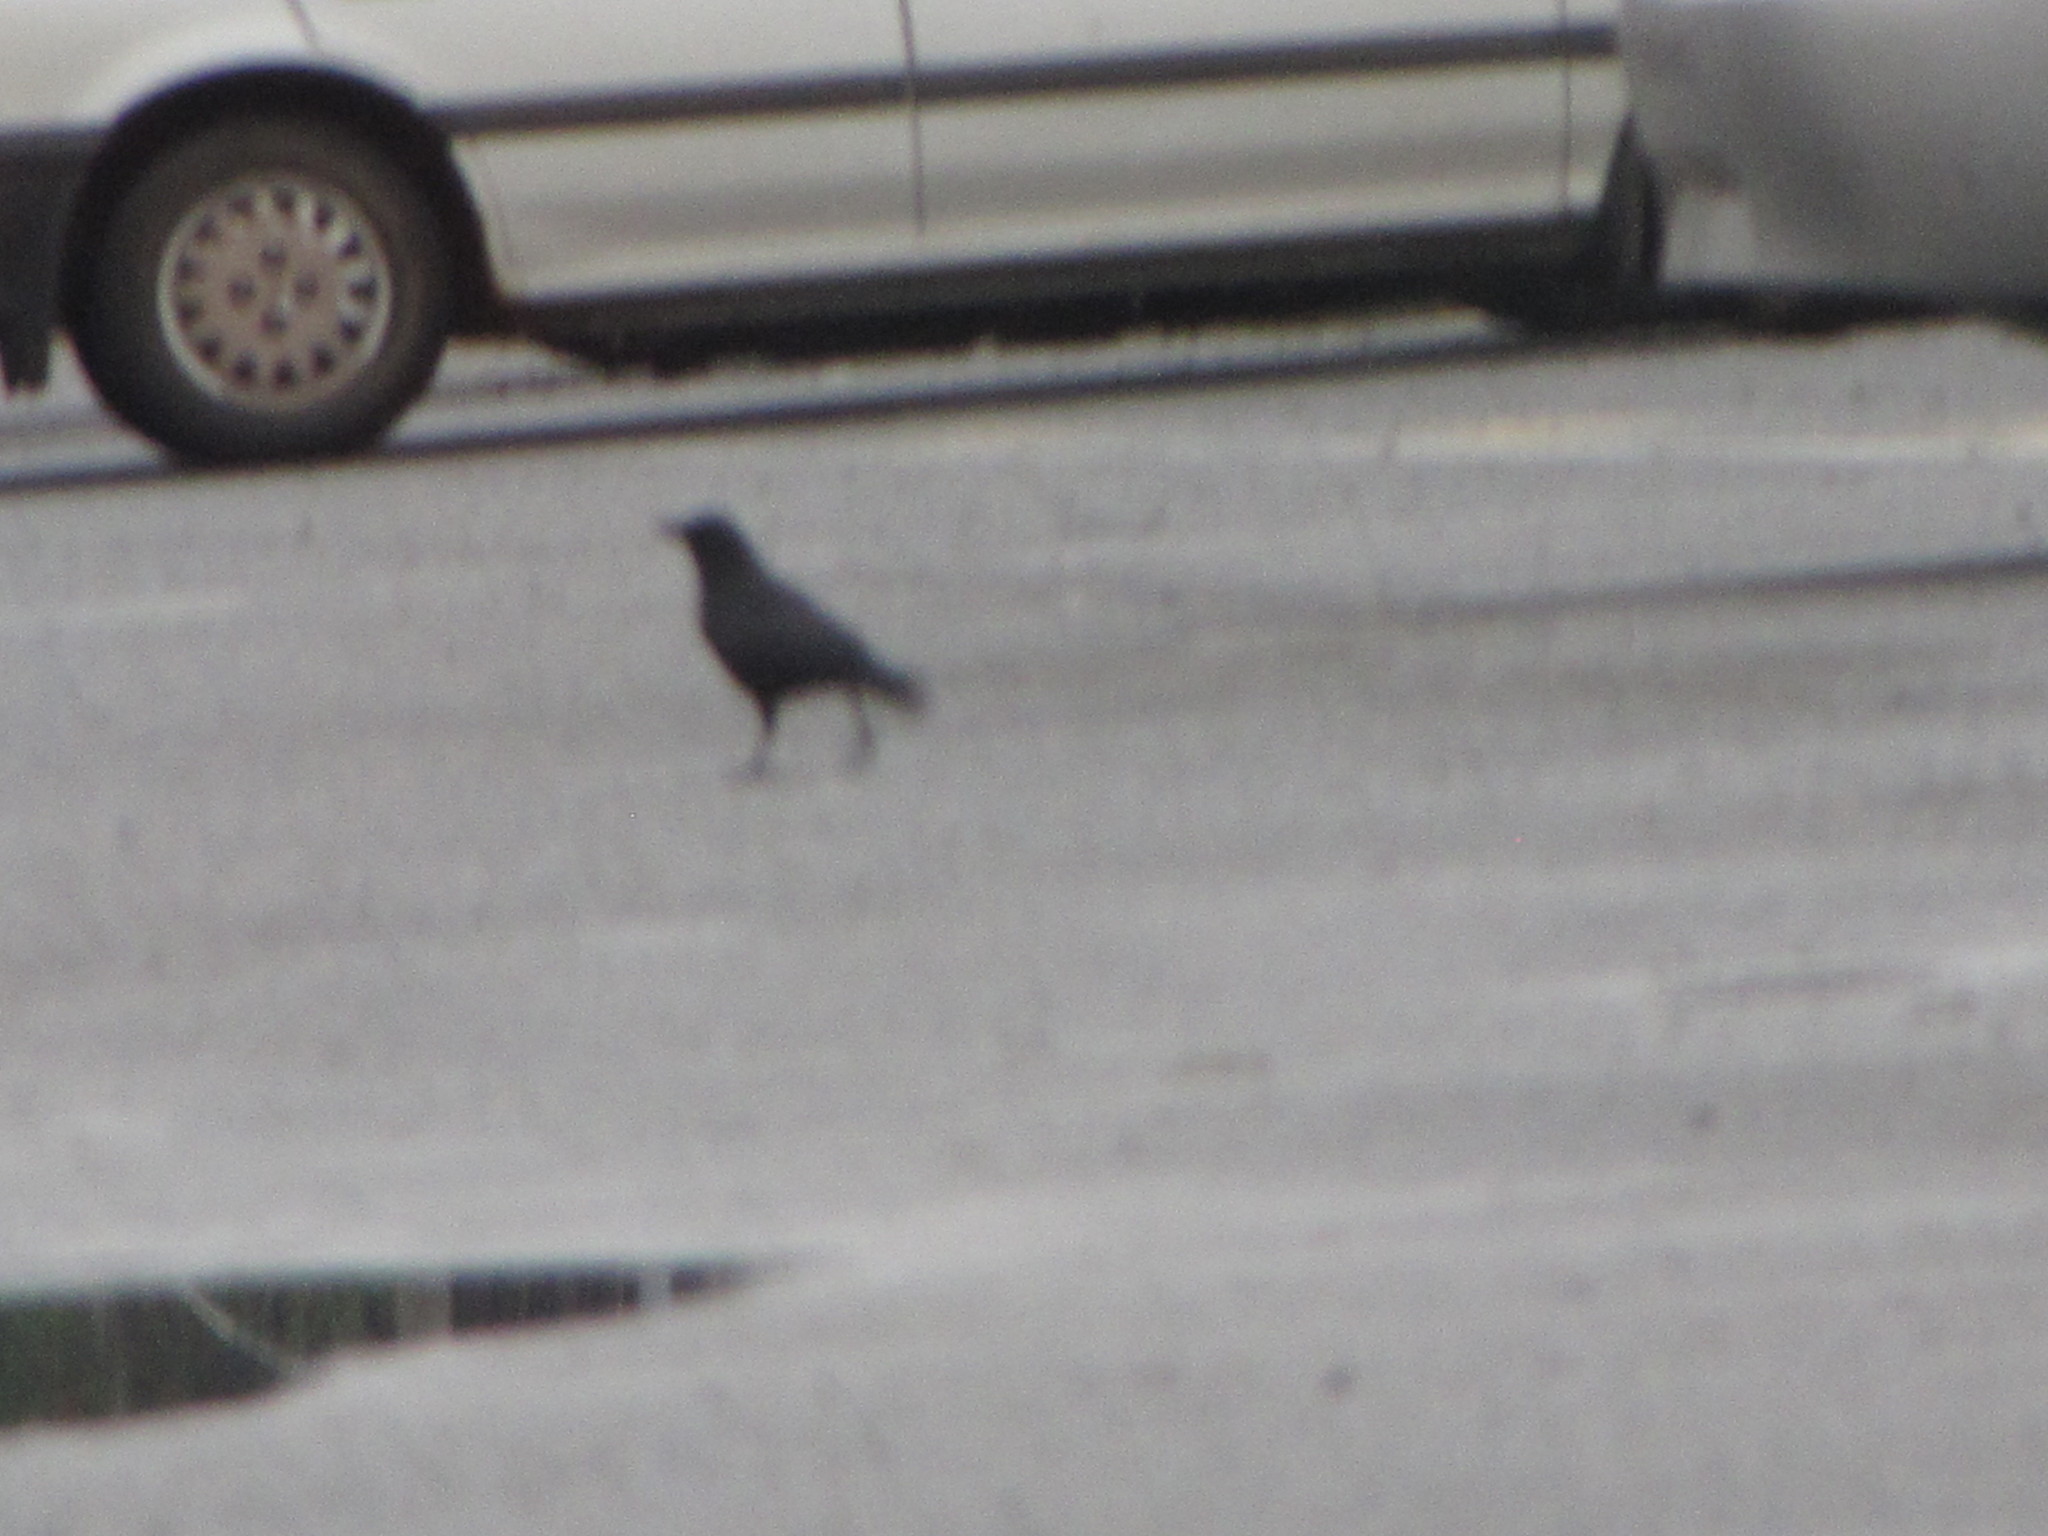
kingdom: Animalia
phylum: Chordata
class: Aves
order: Passeriformes
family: Corvidae
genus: Corvus
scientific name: Corvus brachyrhynchos
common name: American crow
